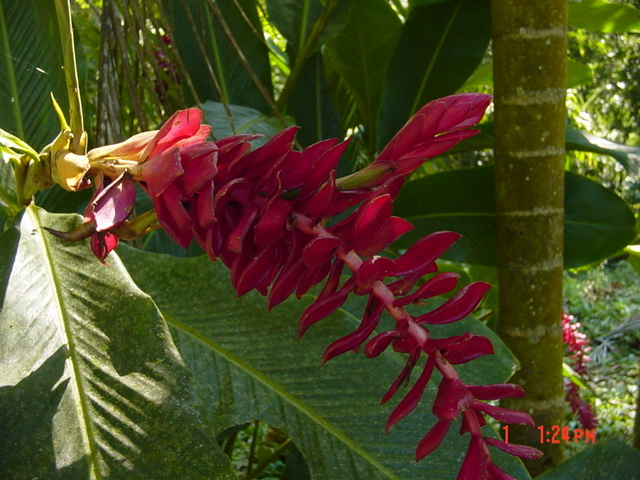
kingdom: Plantae
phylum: Tracheophyta
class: Liliopsida
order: Zingiberales
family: Zingiberaceae
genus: Alpinia
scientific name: Alpinia purpurata
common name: Red ginger
